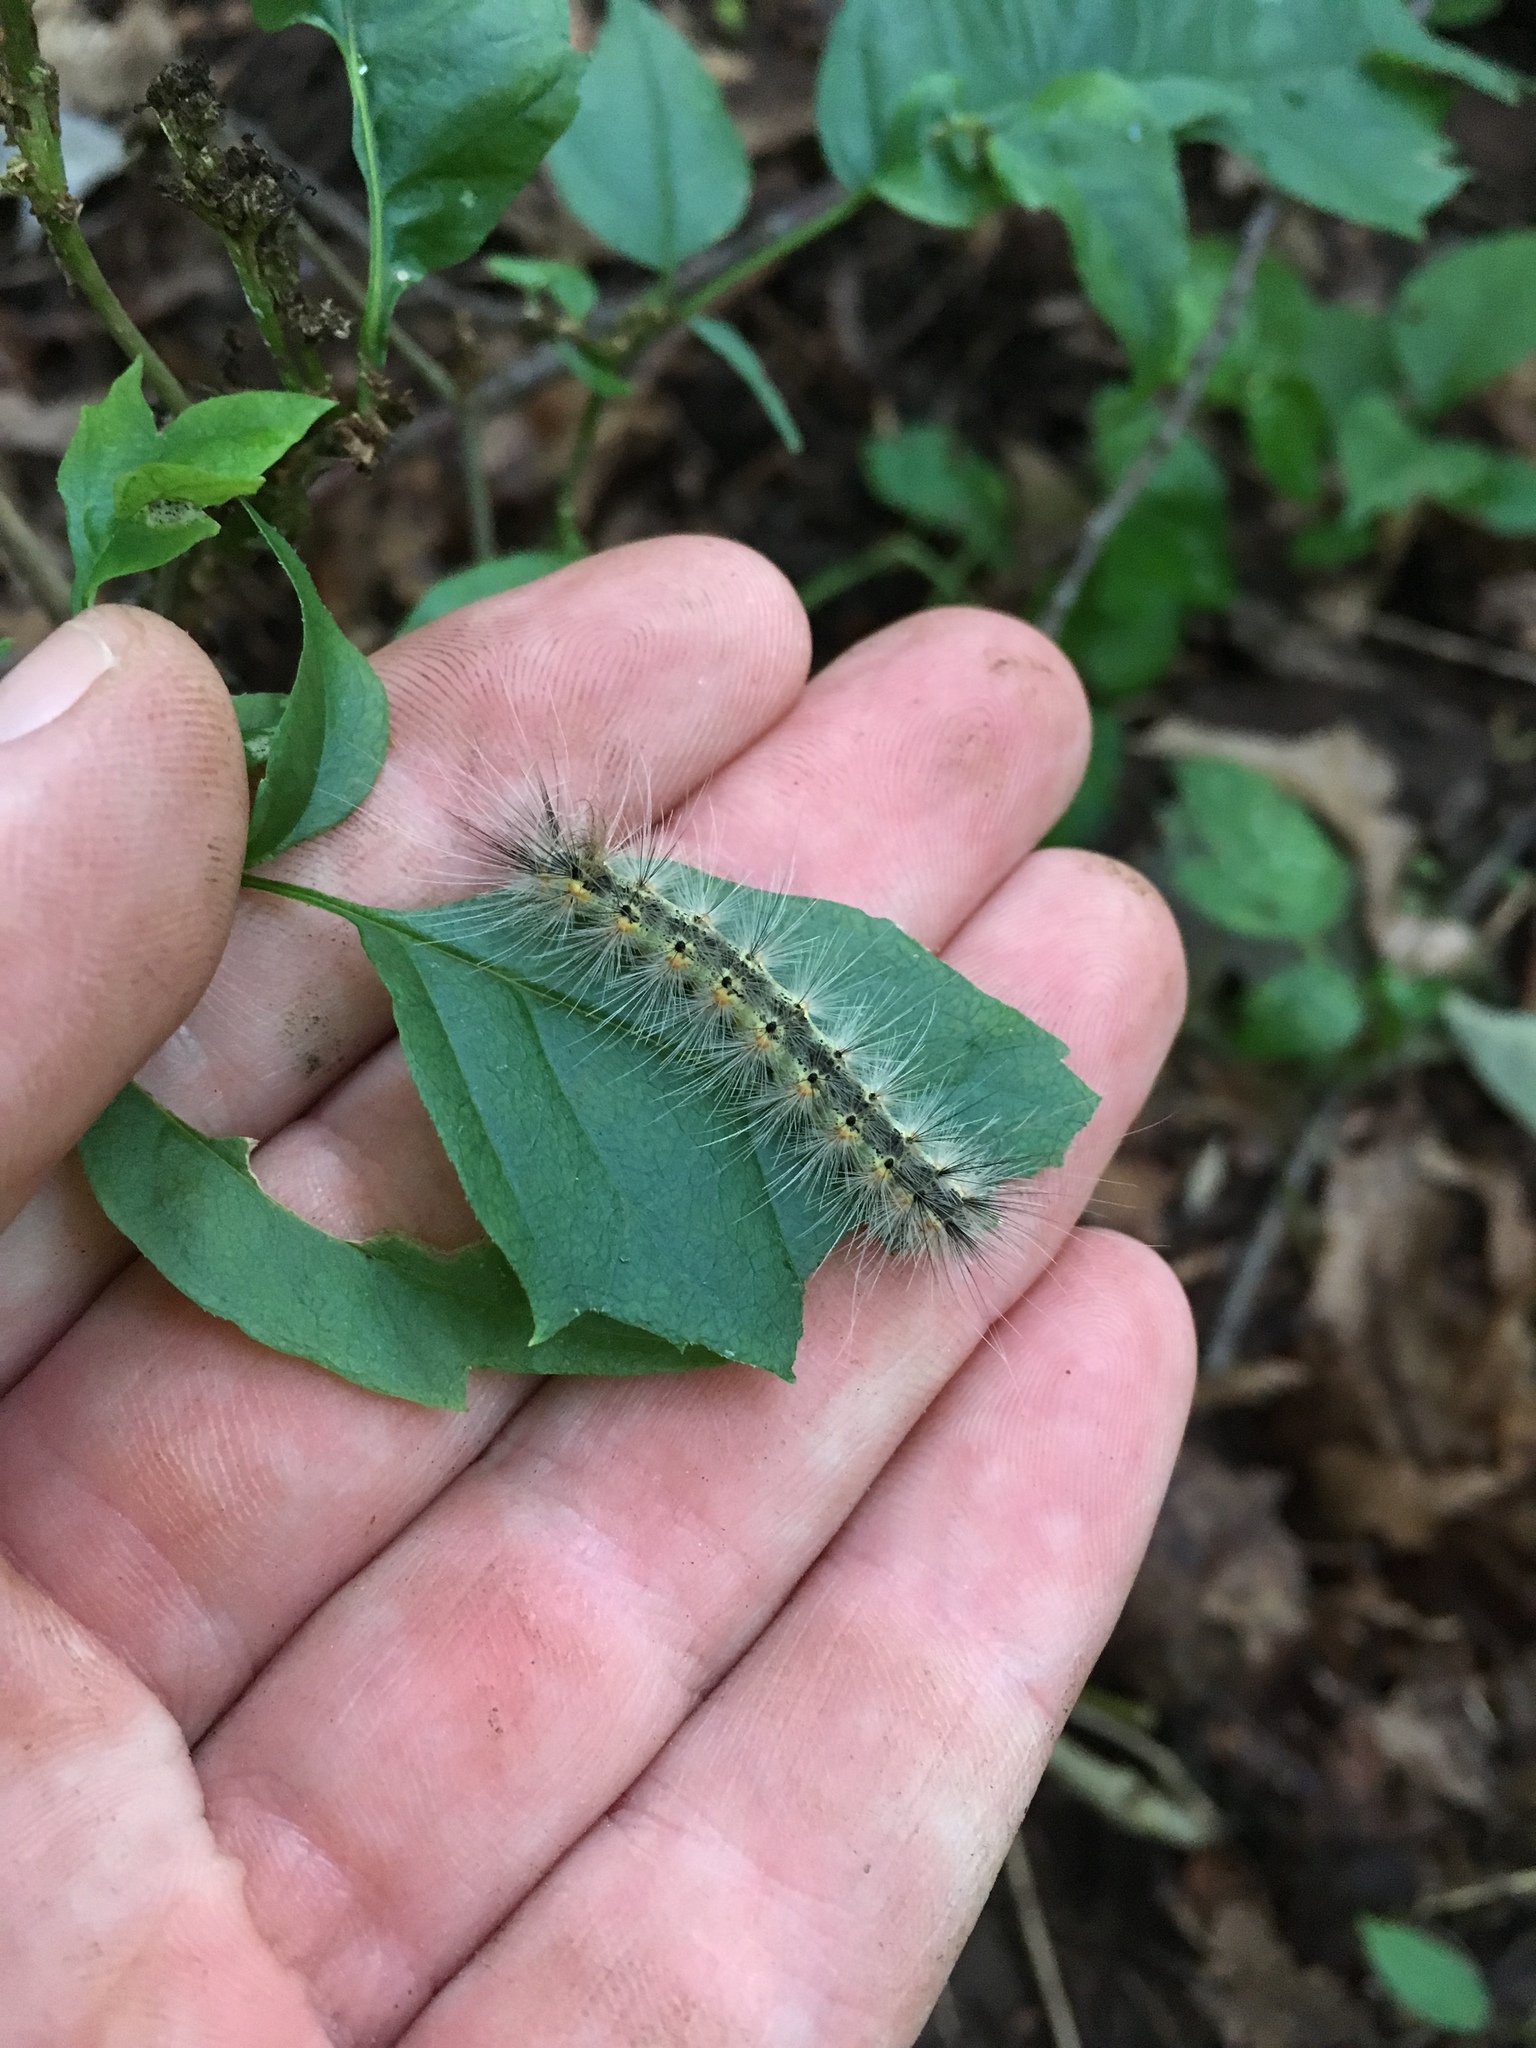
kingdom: Animalia
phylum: Arthropoda
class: Insecta
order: Lepidoptera
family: Erebidae
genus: Hyphantria
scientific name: Hyphantria cunea
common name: American white moth
